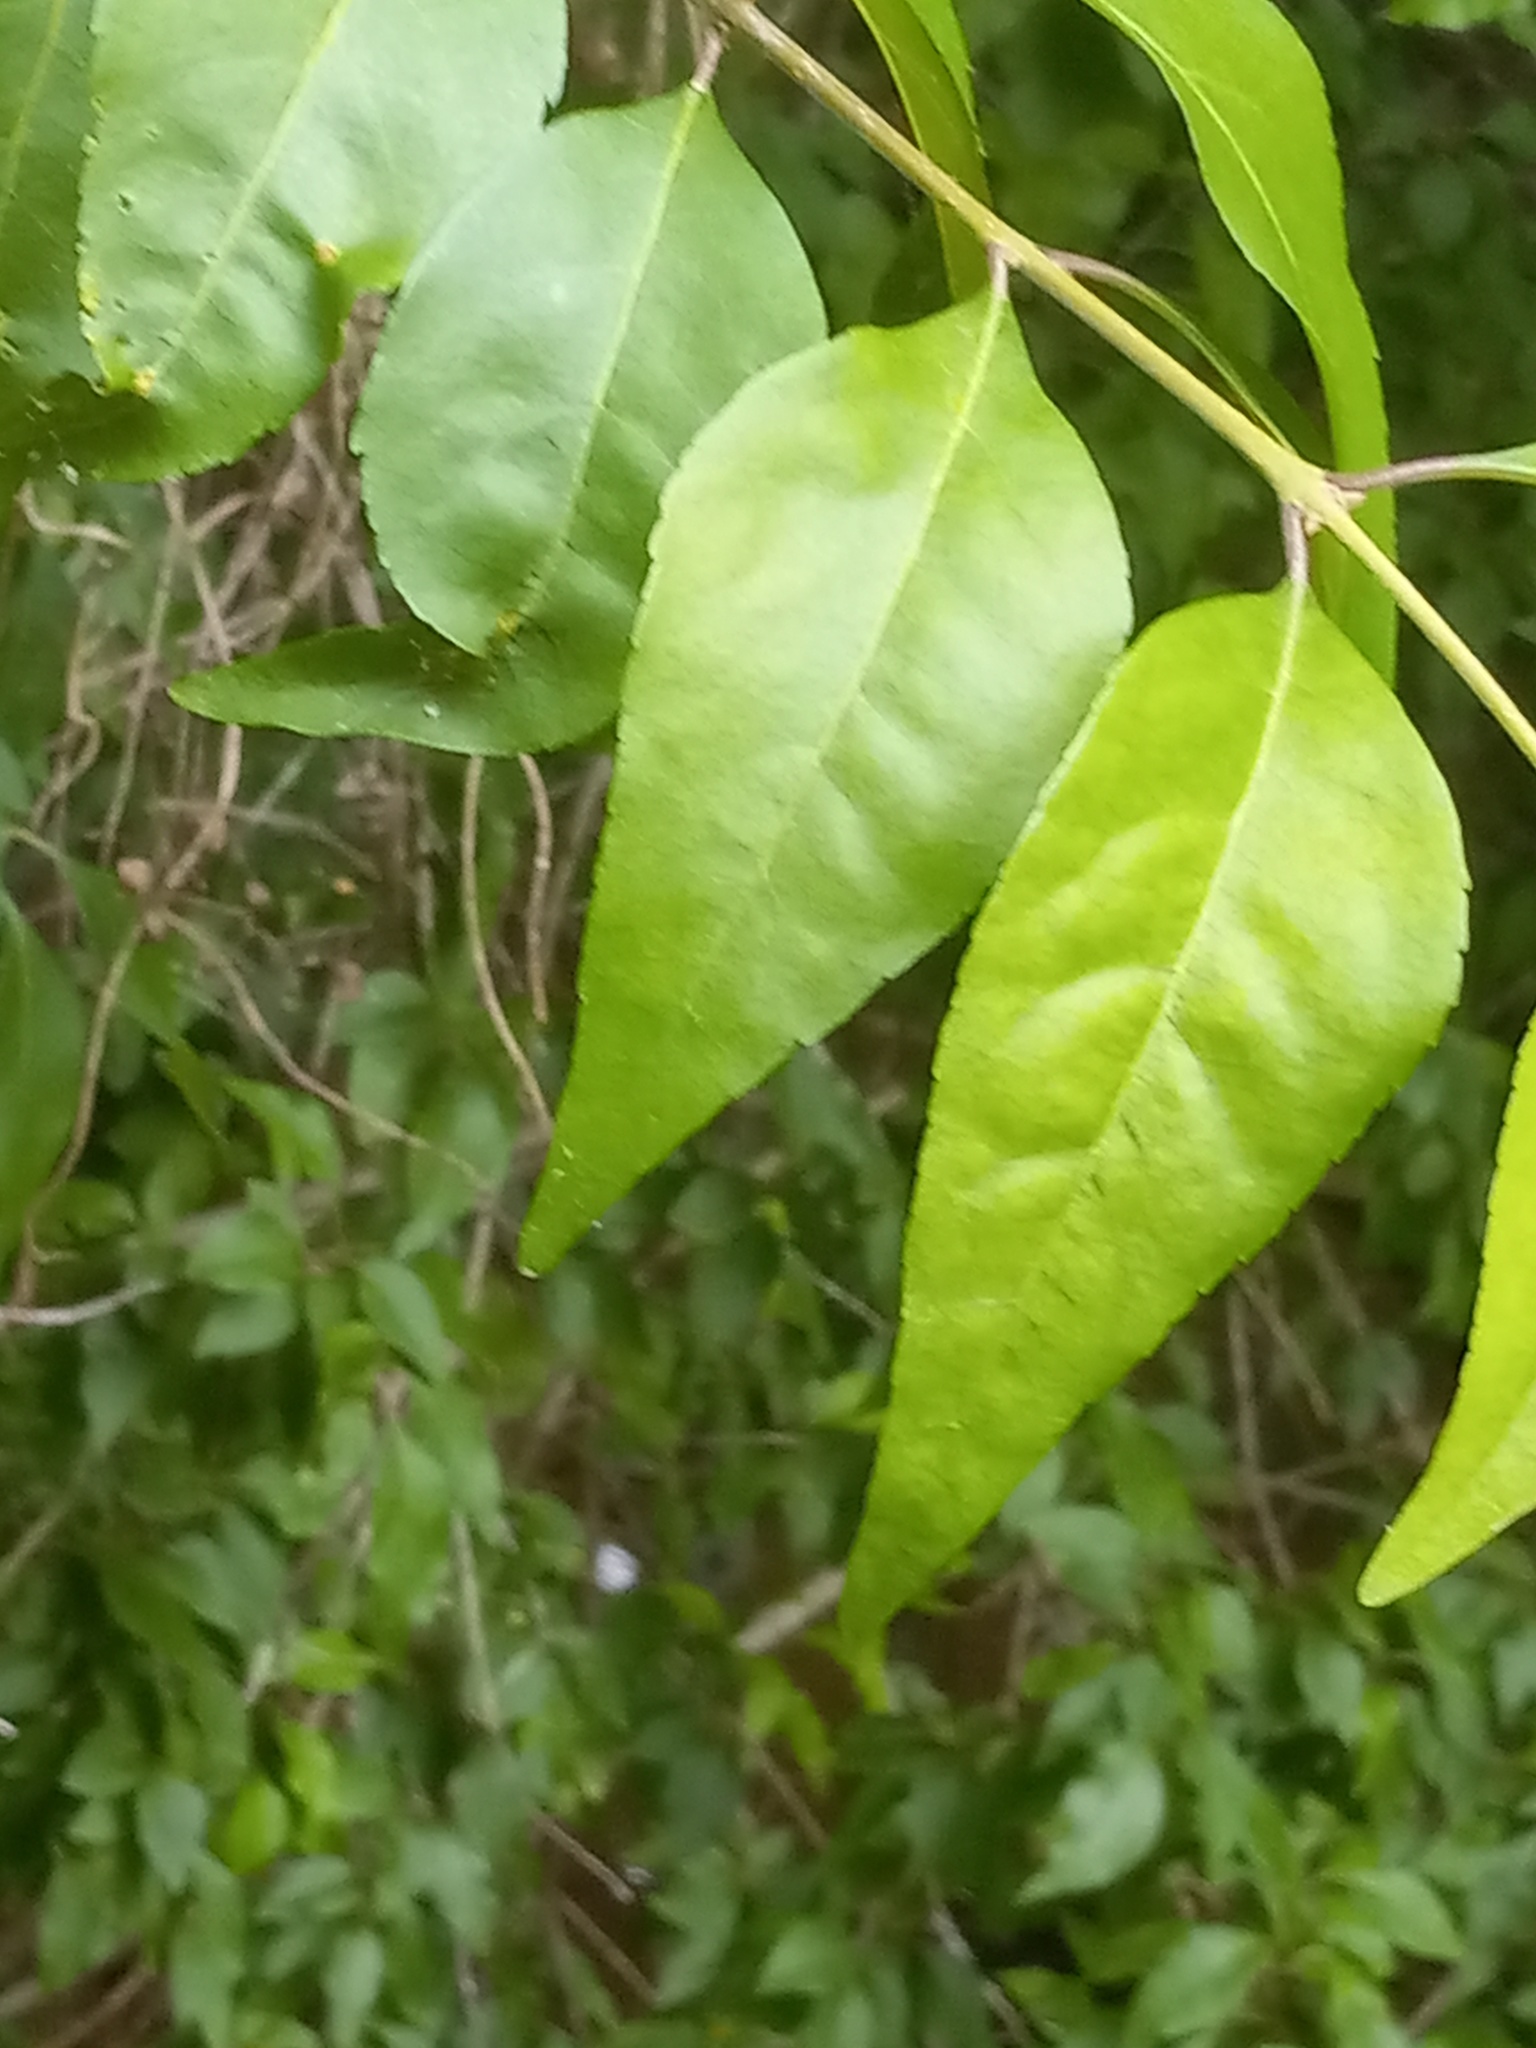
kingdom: Plantae
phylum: Tracheophyta
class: Magnoliopsida
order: Lamiales
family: Oleaceae
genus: Forestiera
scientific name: Forestiera acuminata
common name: Swamp-privet
